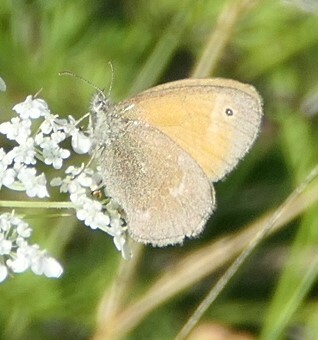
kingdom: Animalia
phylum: Arthropoda
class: Insecta
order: Lepidoptera
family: Nymphalidae
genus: Coenonympha
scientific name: Coenonympha california
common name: Common ringlet
